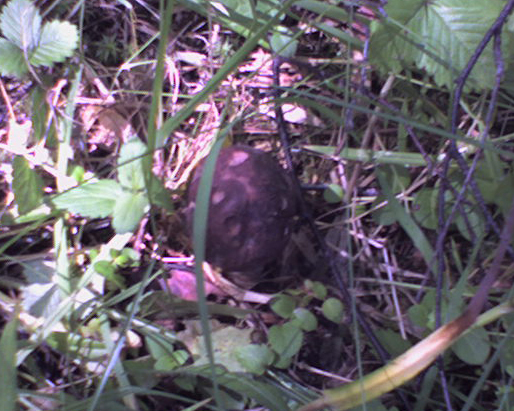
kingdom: Fungi
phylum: Basidiomycota
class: Agaricomycetes
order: Boletales
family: Boletaceae
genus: Boletus
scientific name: Boletus edulis
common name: Cep
